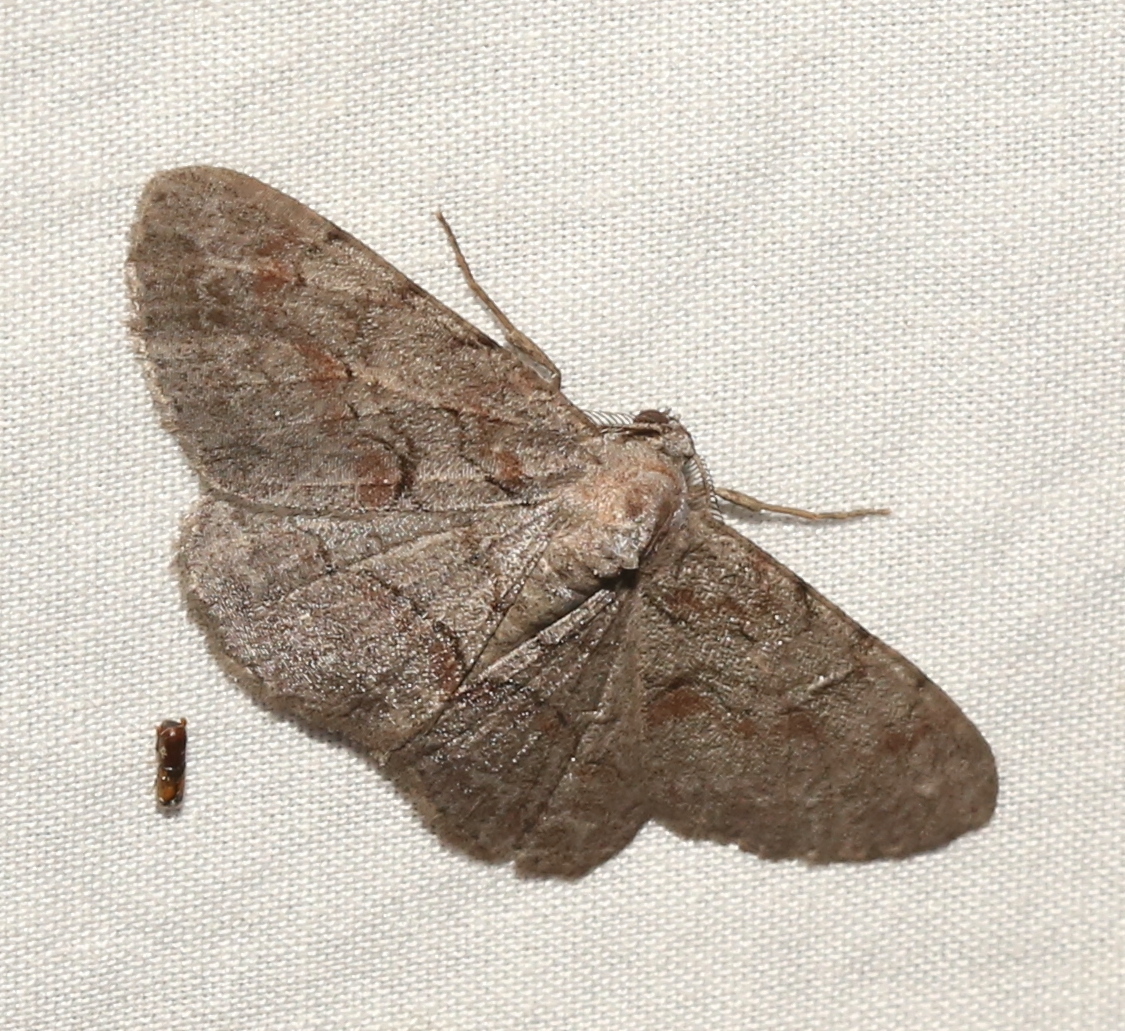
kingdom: Animalia
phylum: Arthropoda
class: Insecta
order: Lepidoptera
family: Geometridae
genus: Iridopsis
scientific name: Iridopsis vellivolata
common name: Large purplish gray
